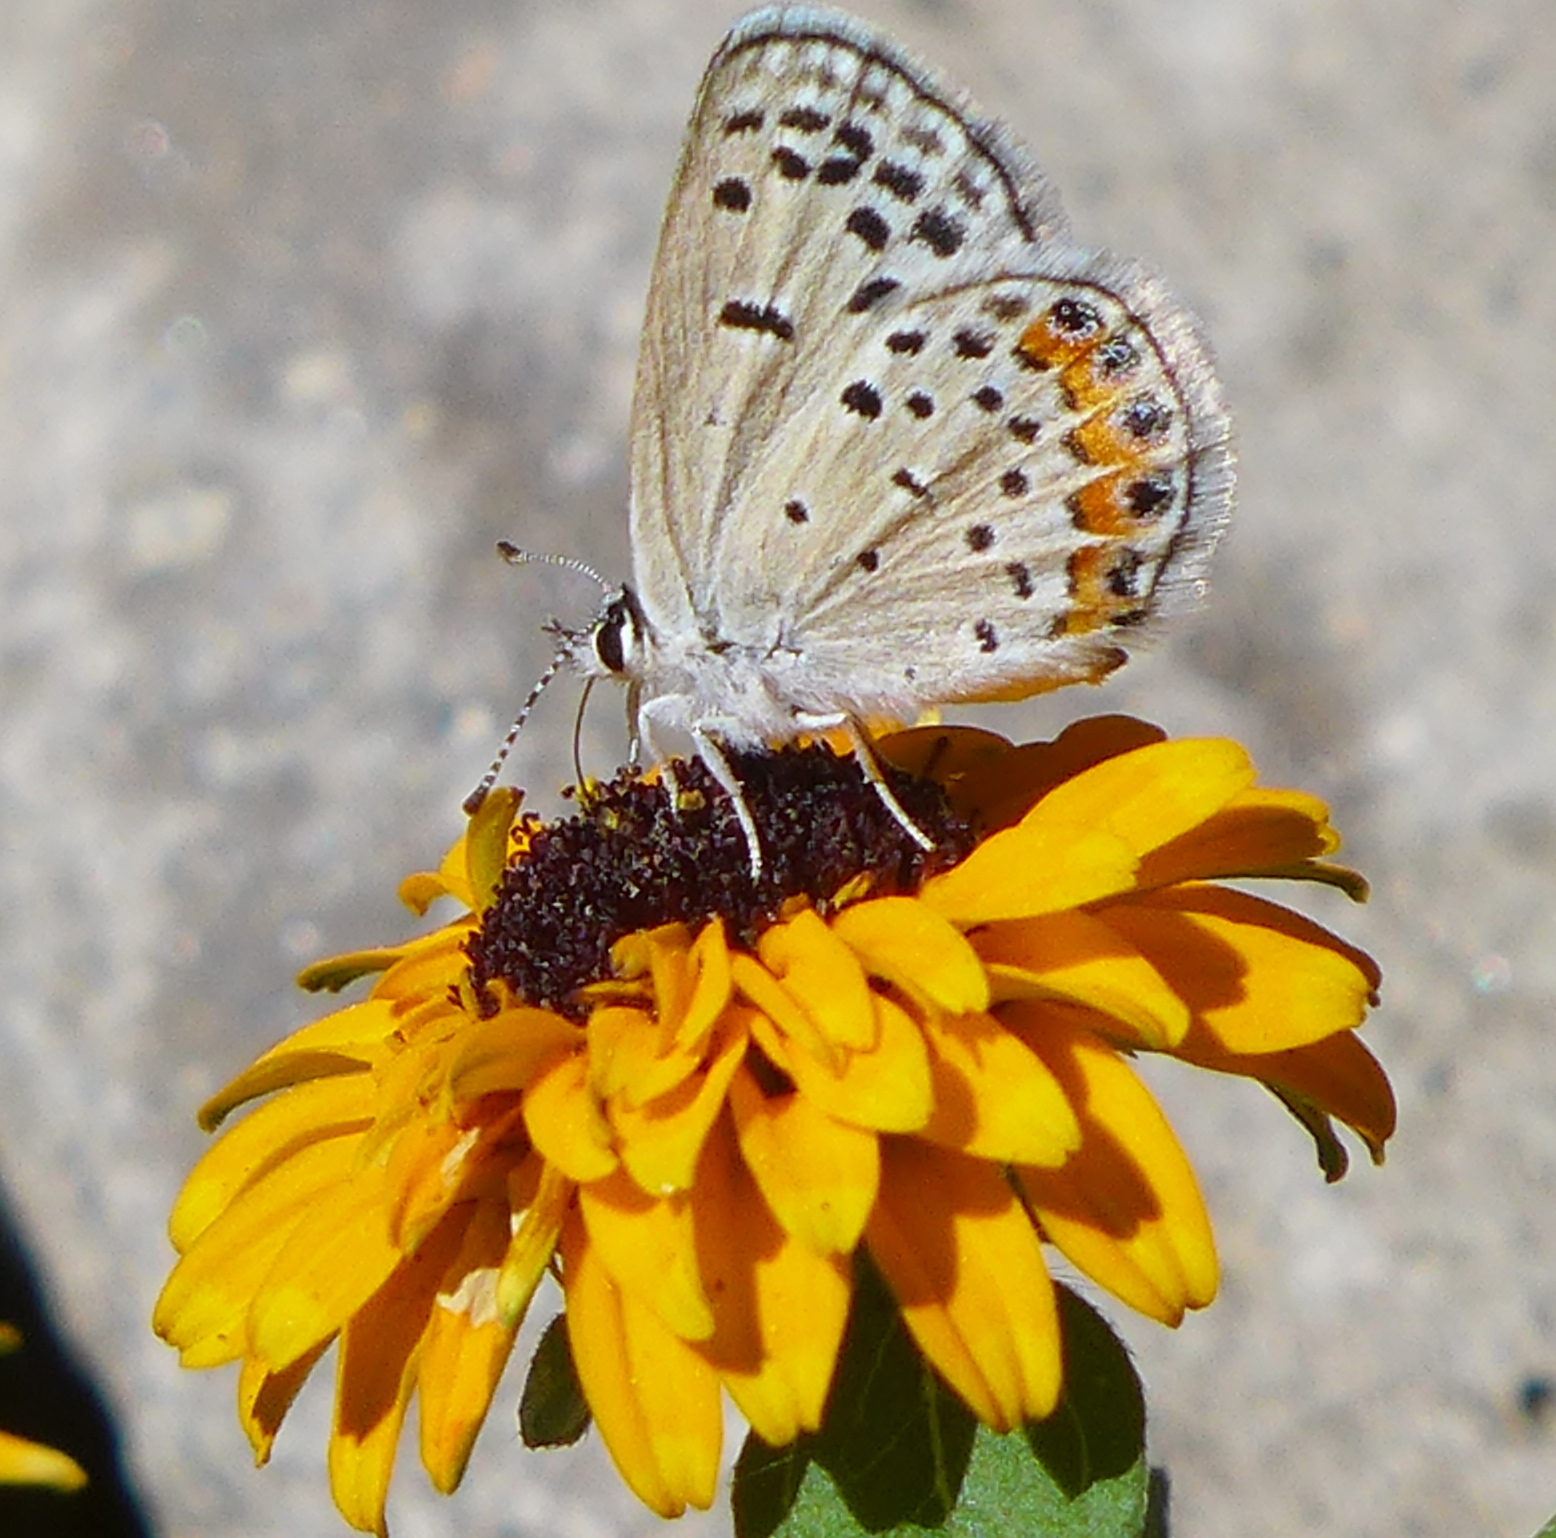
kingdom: Animalia
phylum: Arthropoda
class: Insecta
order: Lepidoptera
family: Lycaenidae
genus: Icaricia
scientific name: Icaricia acmon
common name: Acmon blue
